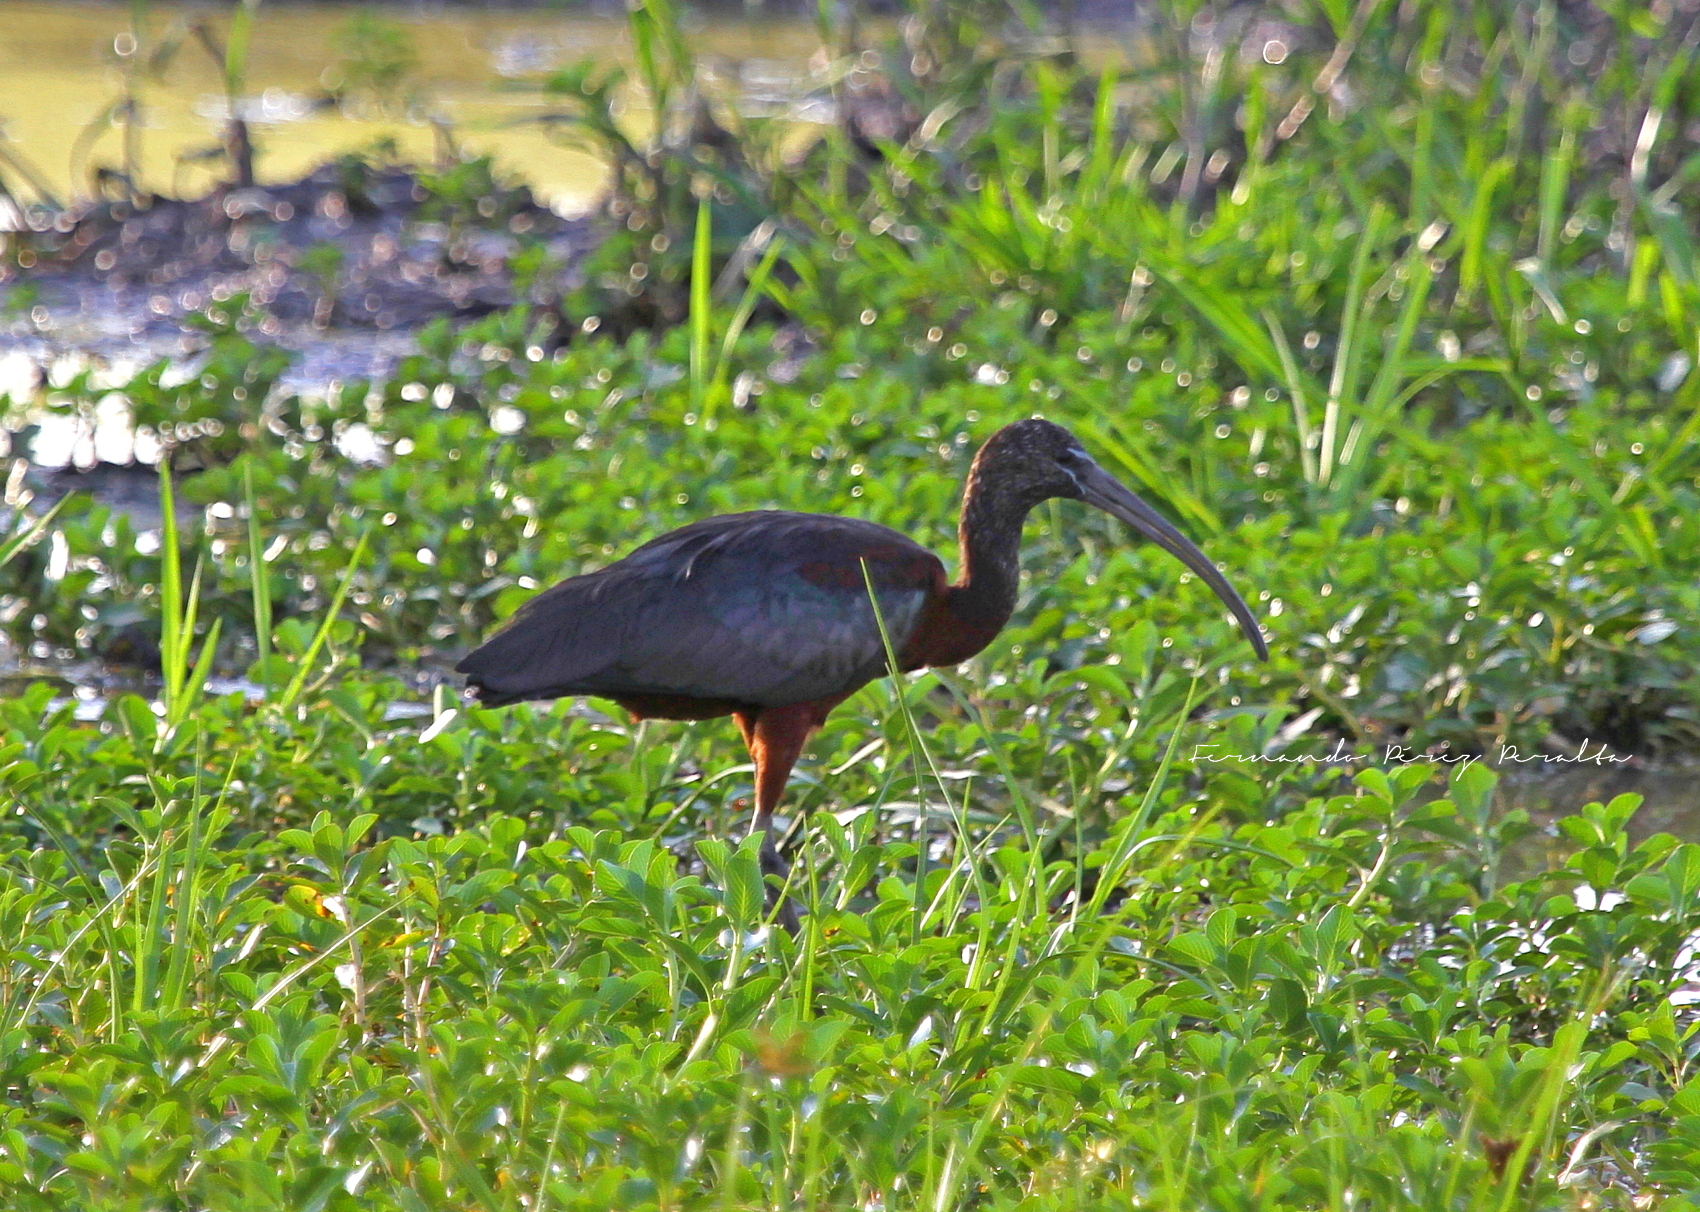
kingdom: Animalia
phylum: Chordata
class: Aves
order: Pelecaniformes
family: Threskiornithidae
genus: Plegadis
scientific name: Plegadis falcinellus
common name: Glossy ibis
